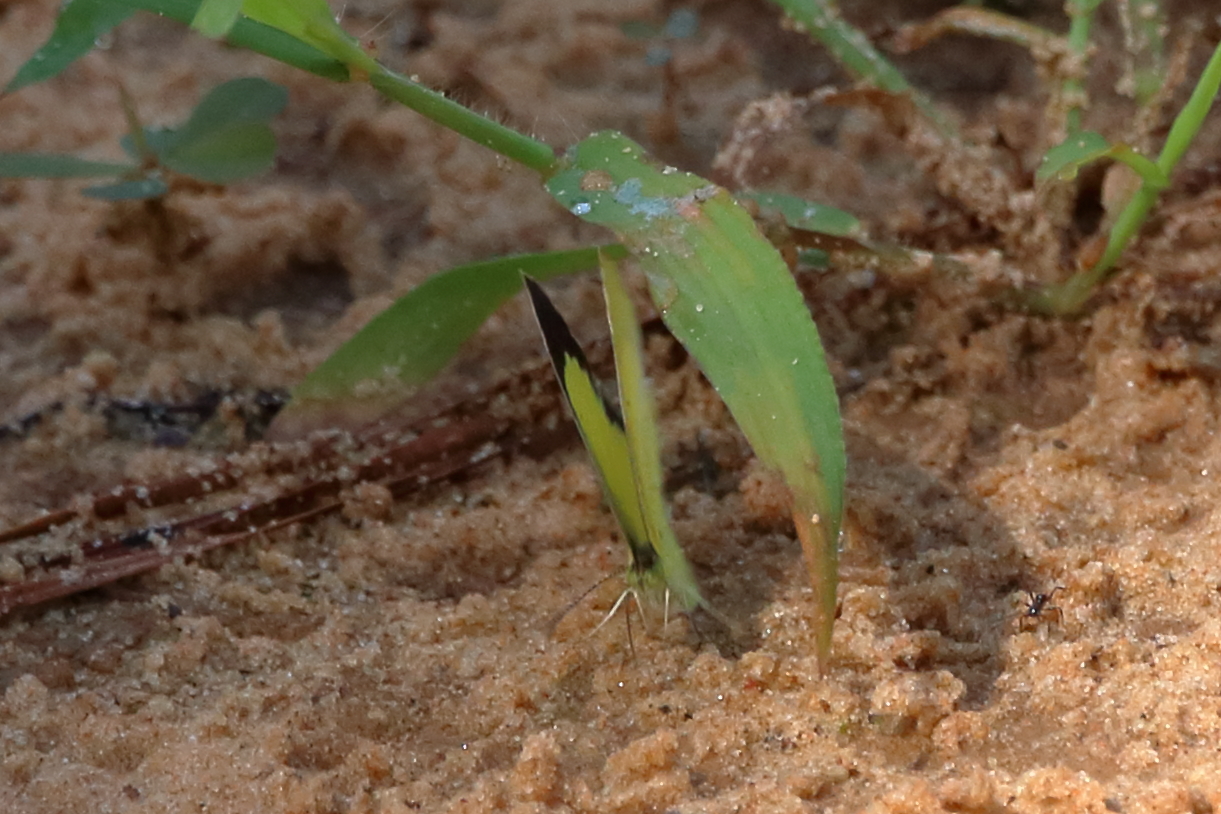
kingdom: Animalia
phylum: Arthropoda
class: Insecta
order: Lepidoptera
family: Pieridae
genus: Pyrisitia
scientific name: Pyrisitia lisa
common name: Little yellow
